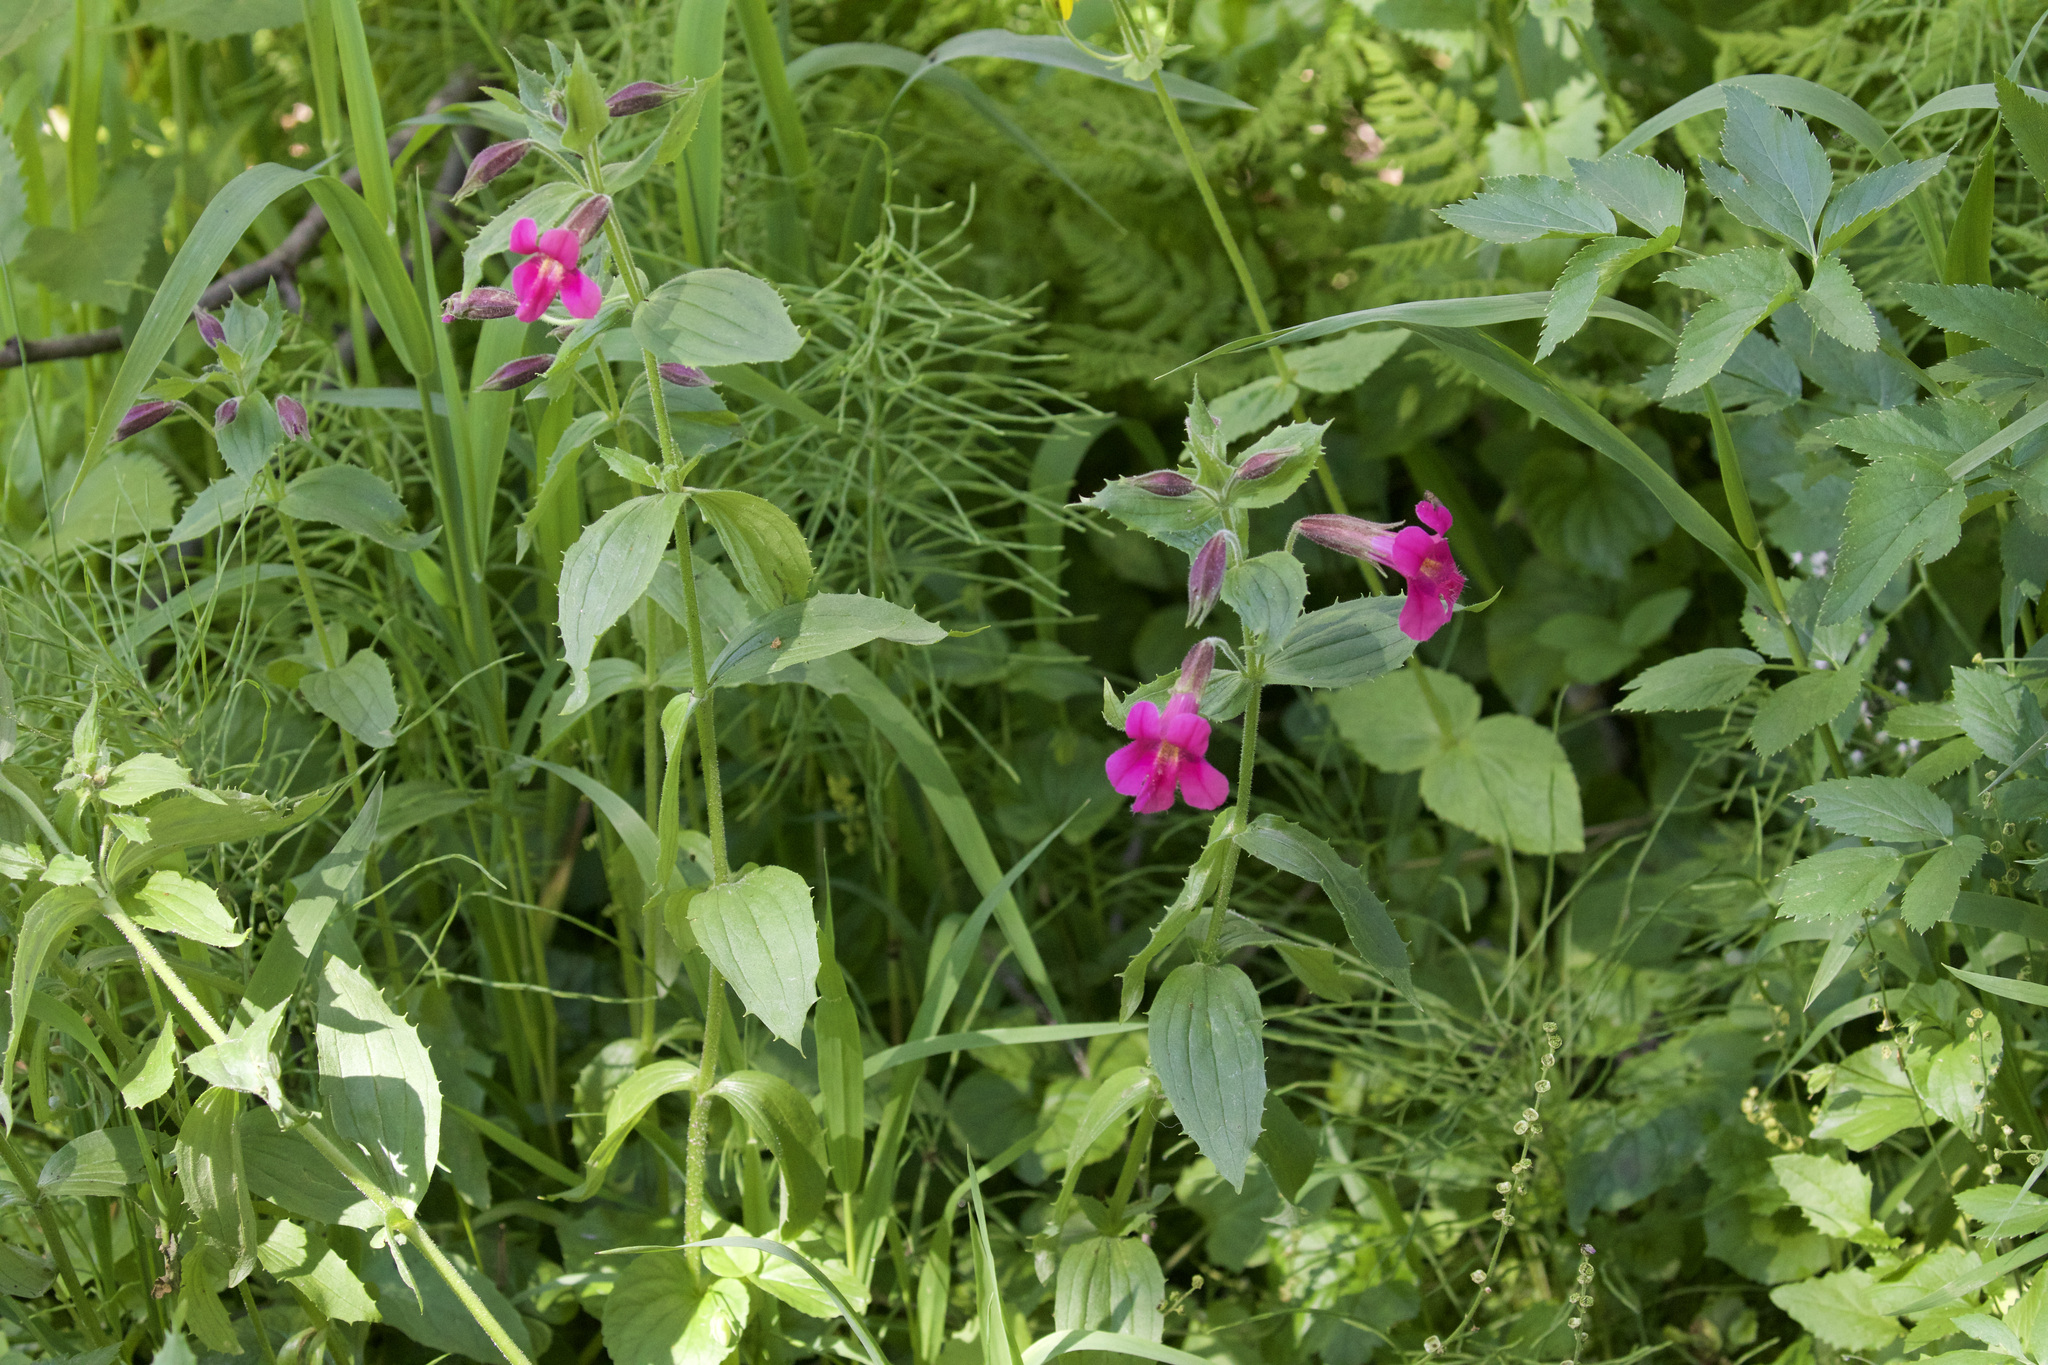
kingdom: Plantae
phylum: Tracheophyta
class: Magnoliopsida
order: Lamiales
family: Phrymaceae
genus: Erythranthe
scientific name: Erythranthe lewisii
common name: Lewis's monkey-flower
